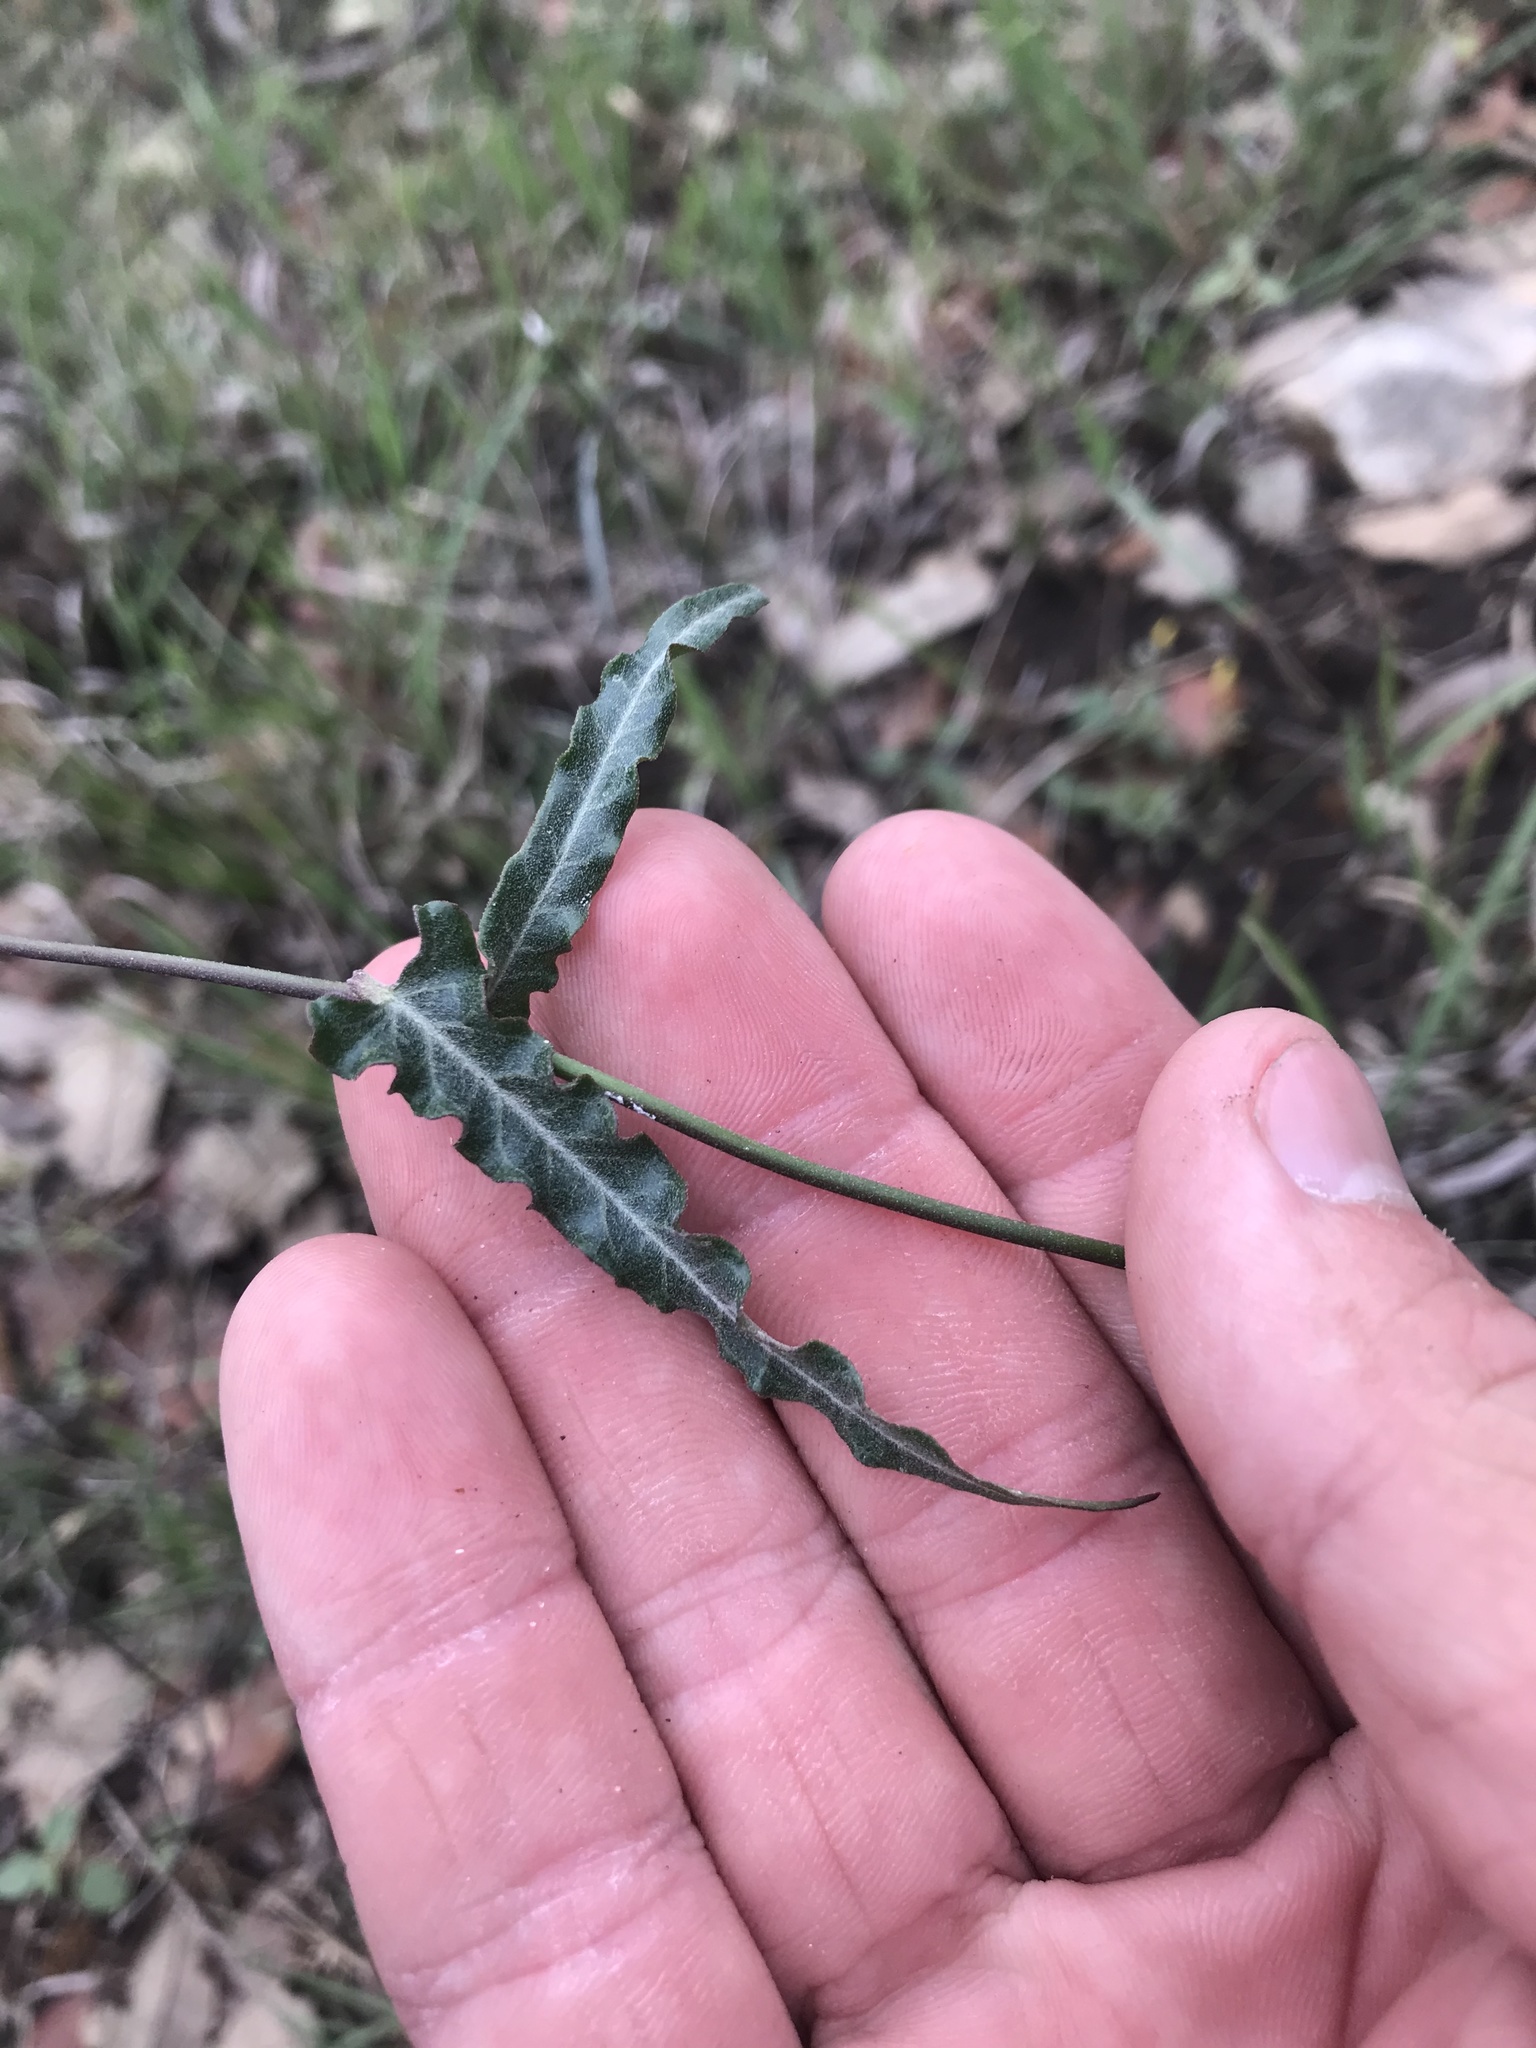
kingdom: Plantae
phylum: Tracheophyta
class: Magnoliopsida
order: Gentianales
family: Apocynaceae
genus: Funastrum
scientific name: Funastrum crispum
